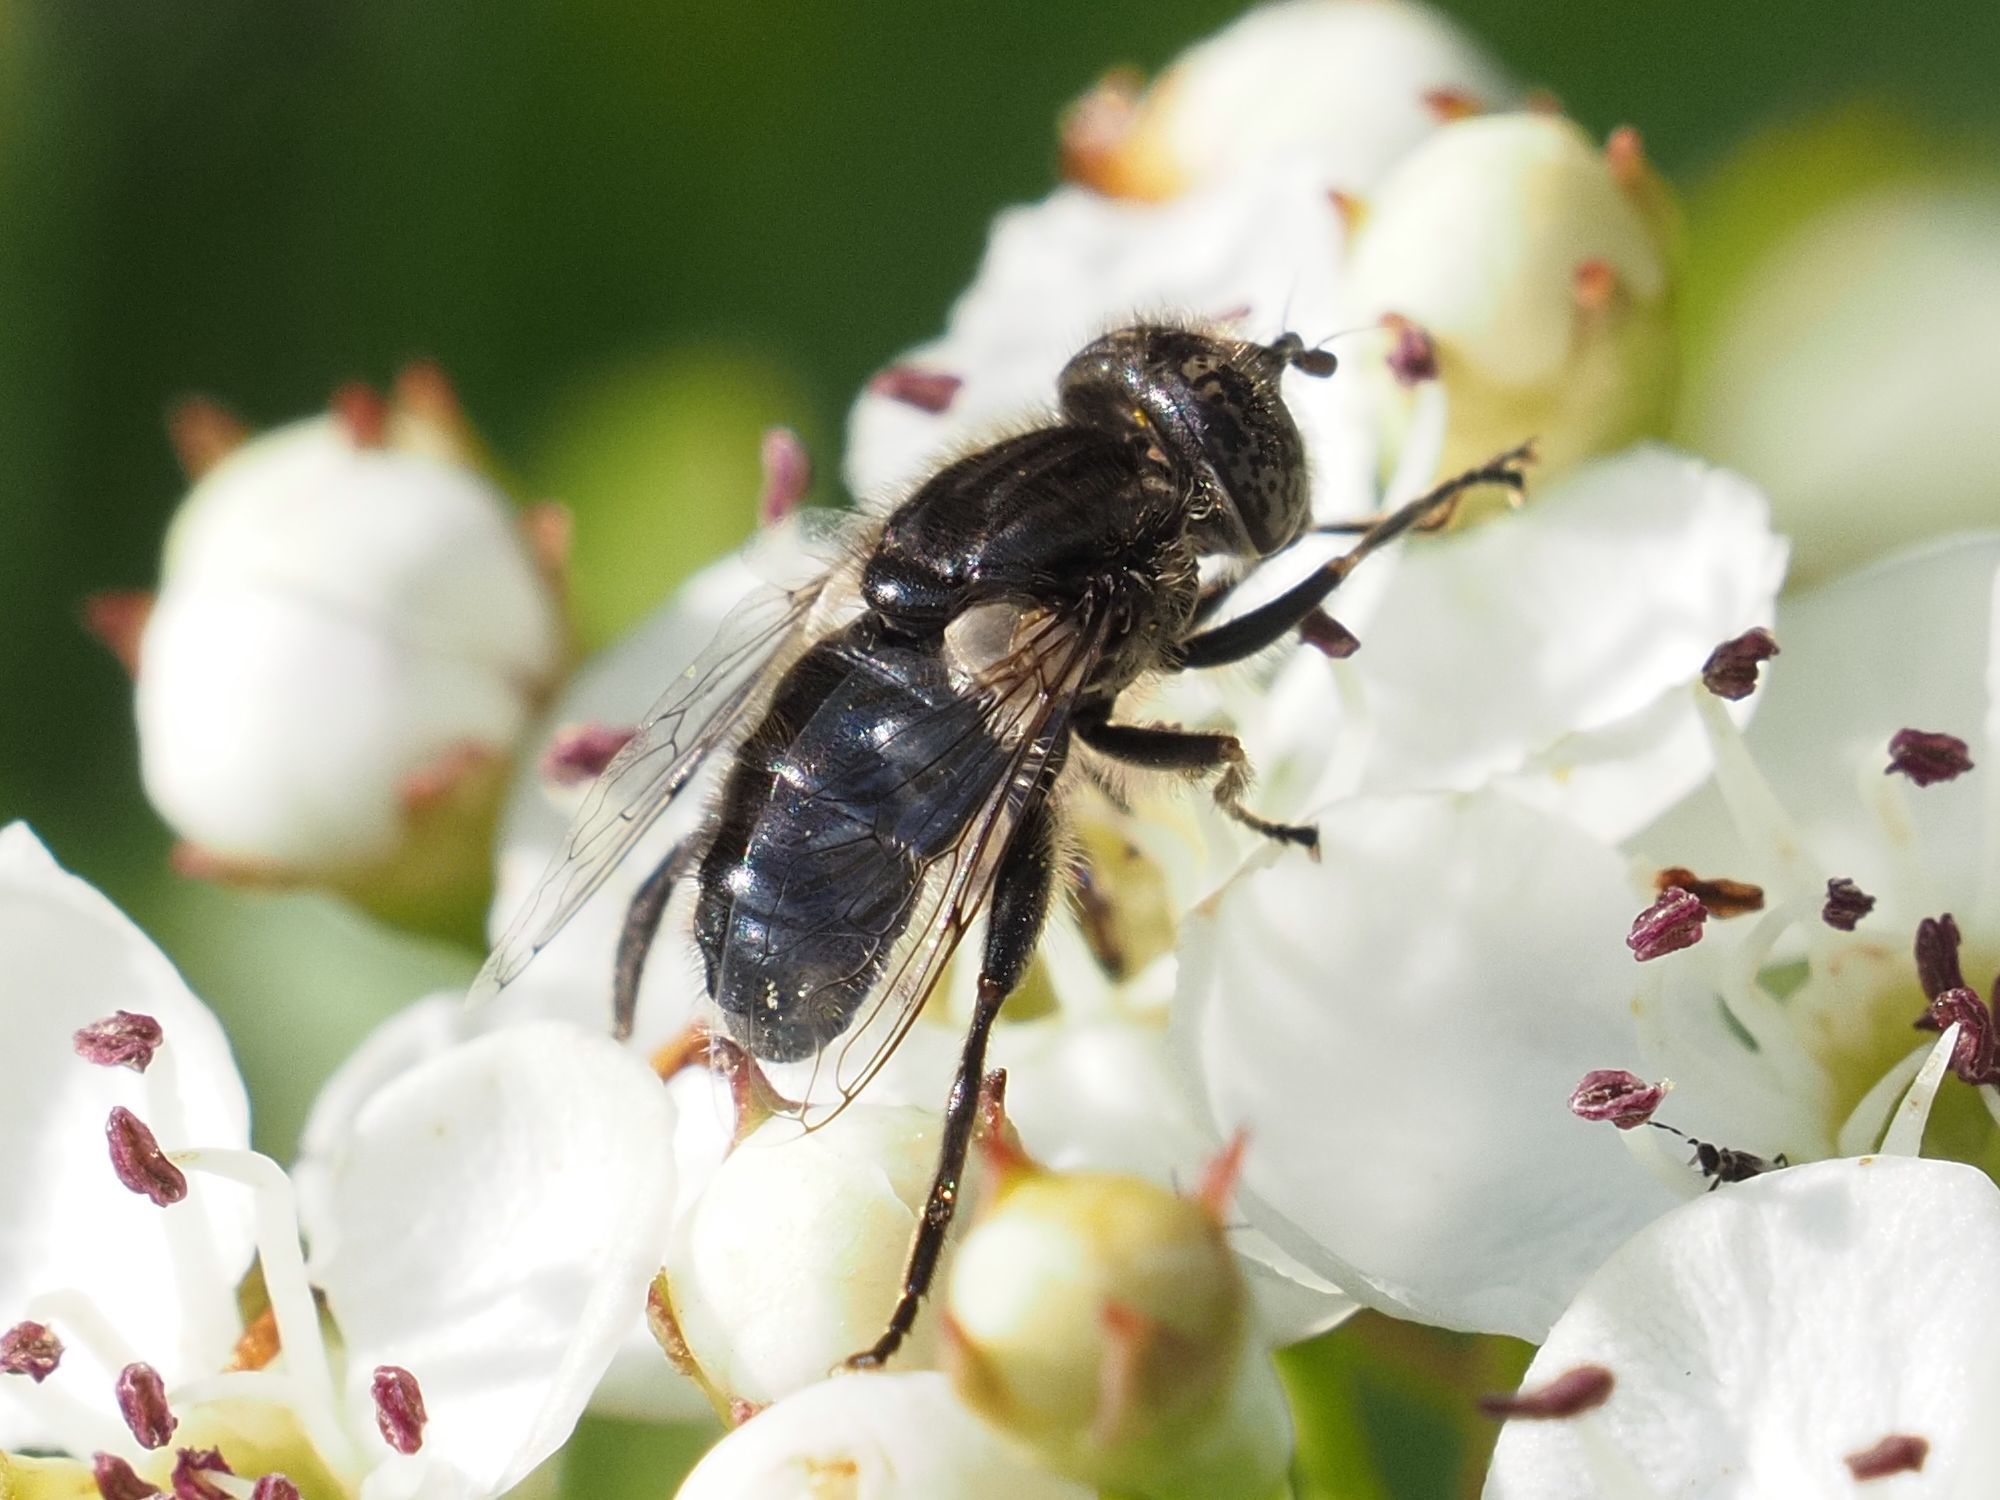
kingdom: Animalia
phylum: Arthropoda
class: Insecta
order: Diptera
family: Syrphidae
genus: Eristalinus
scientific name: Eristalinus sepulchralis
